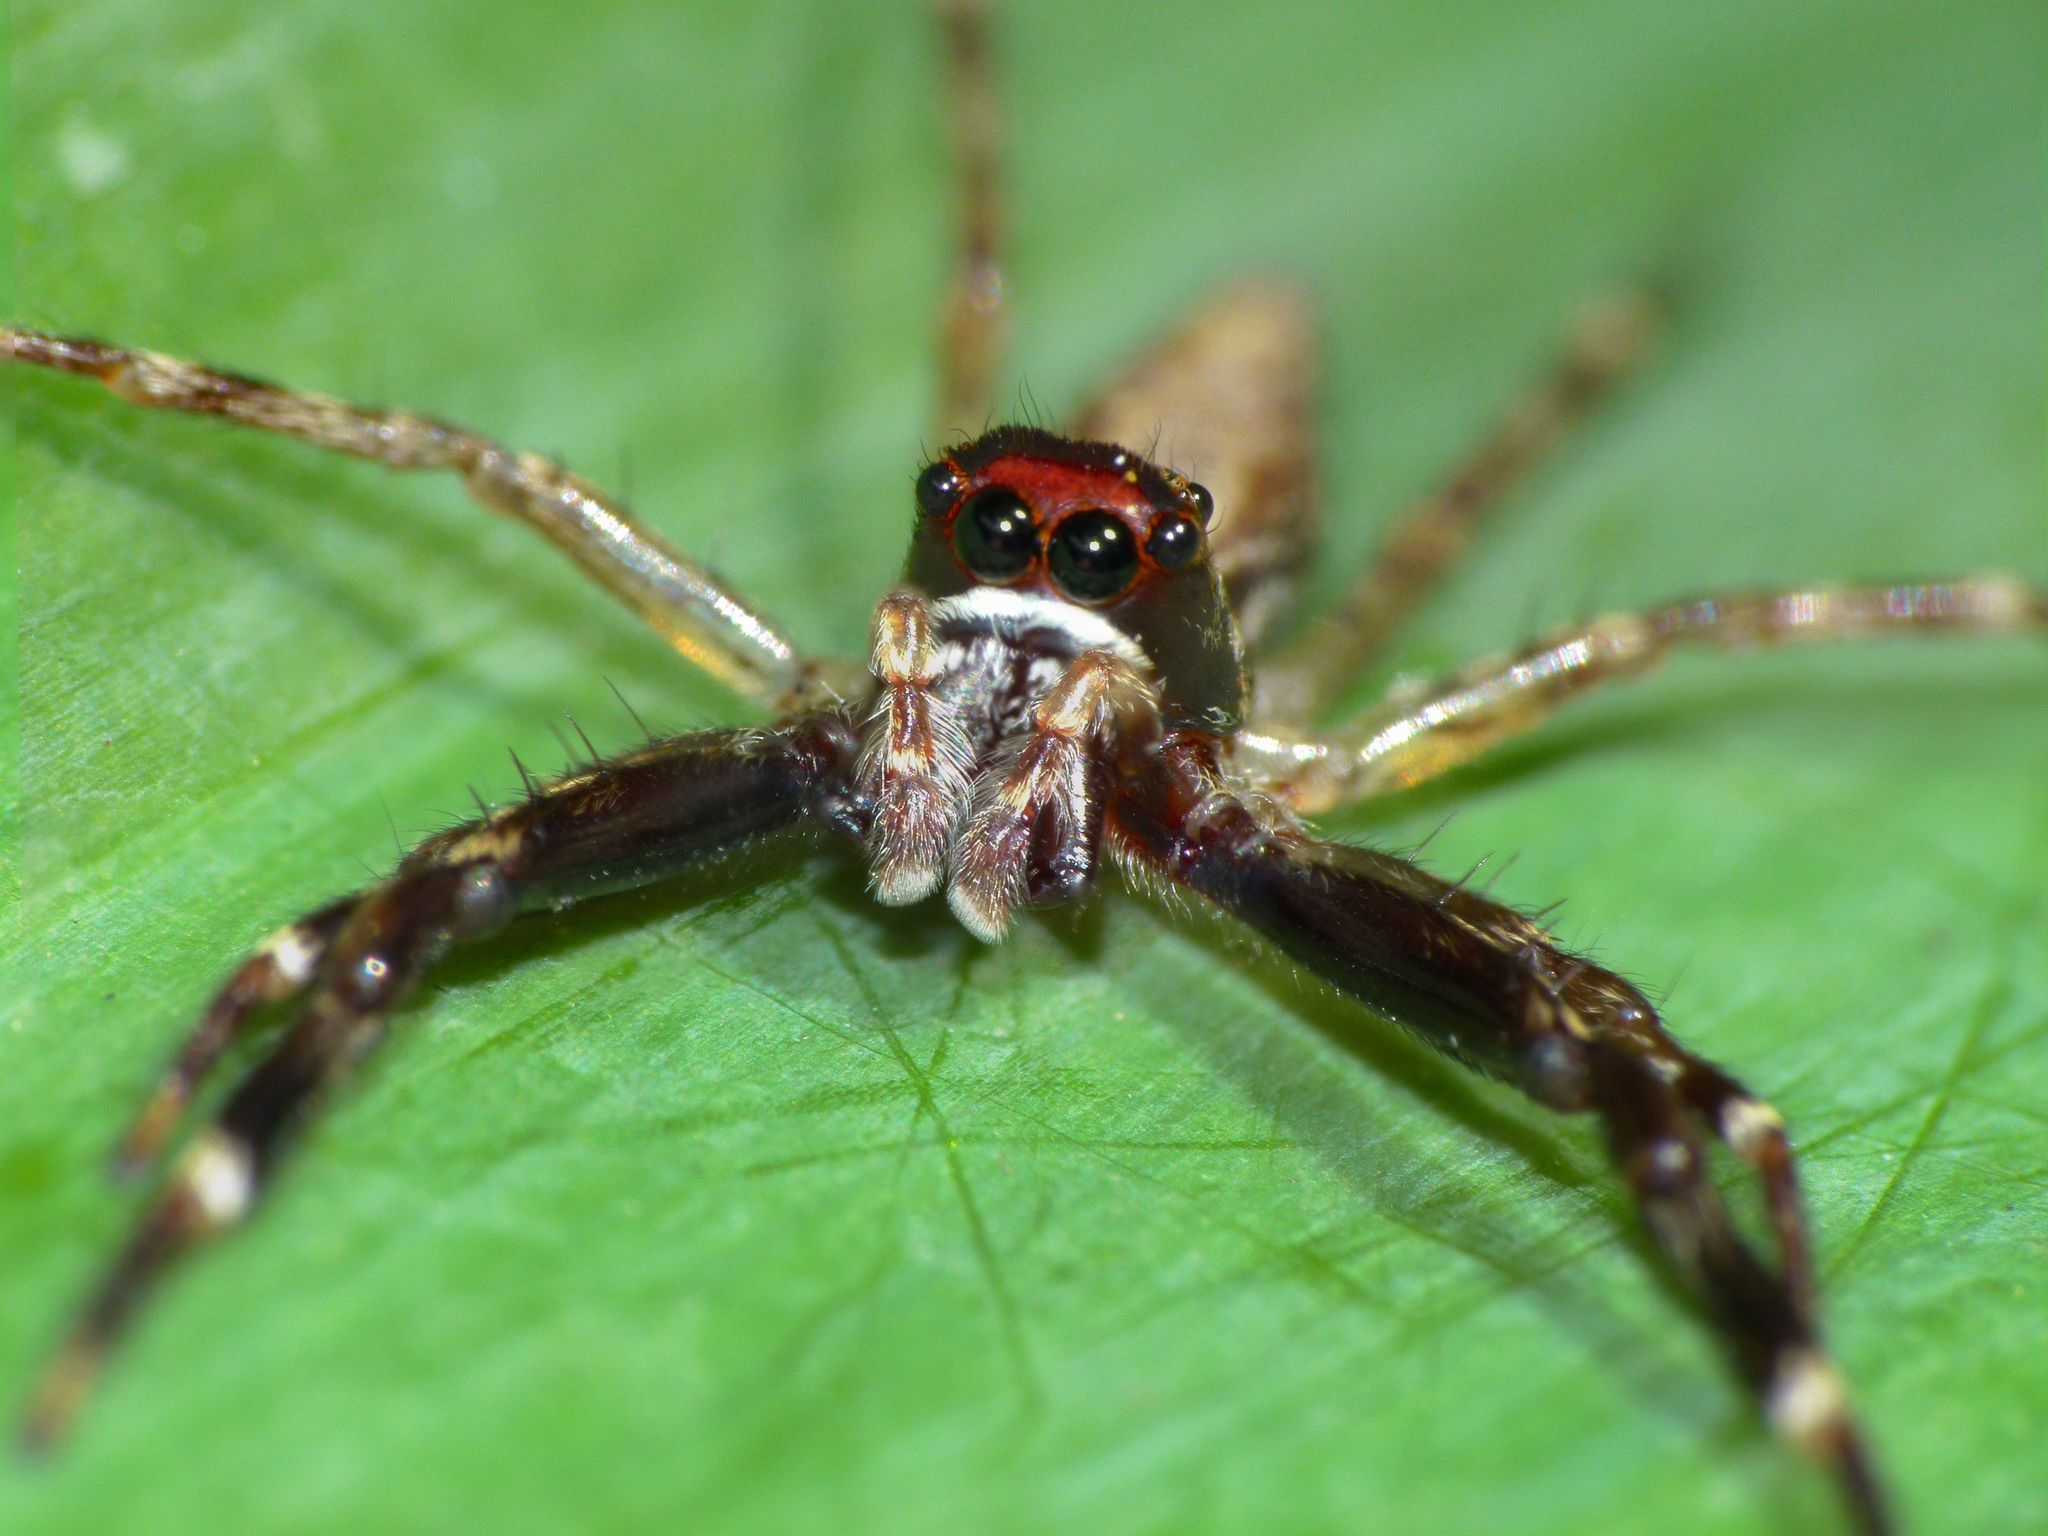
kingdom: Animalia
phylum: Arthropoda
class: Arachnida
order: Araneae
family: Salticidae
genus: Helpis
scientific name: Helpis minitabunda
